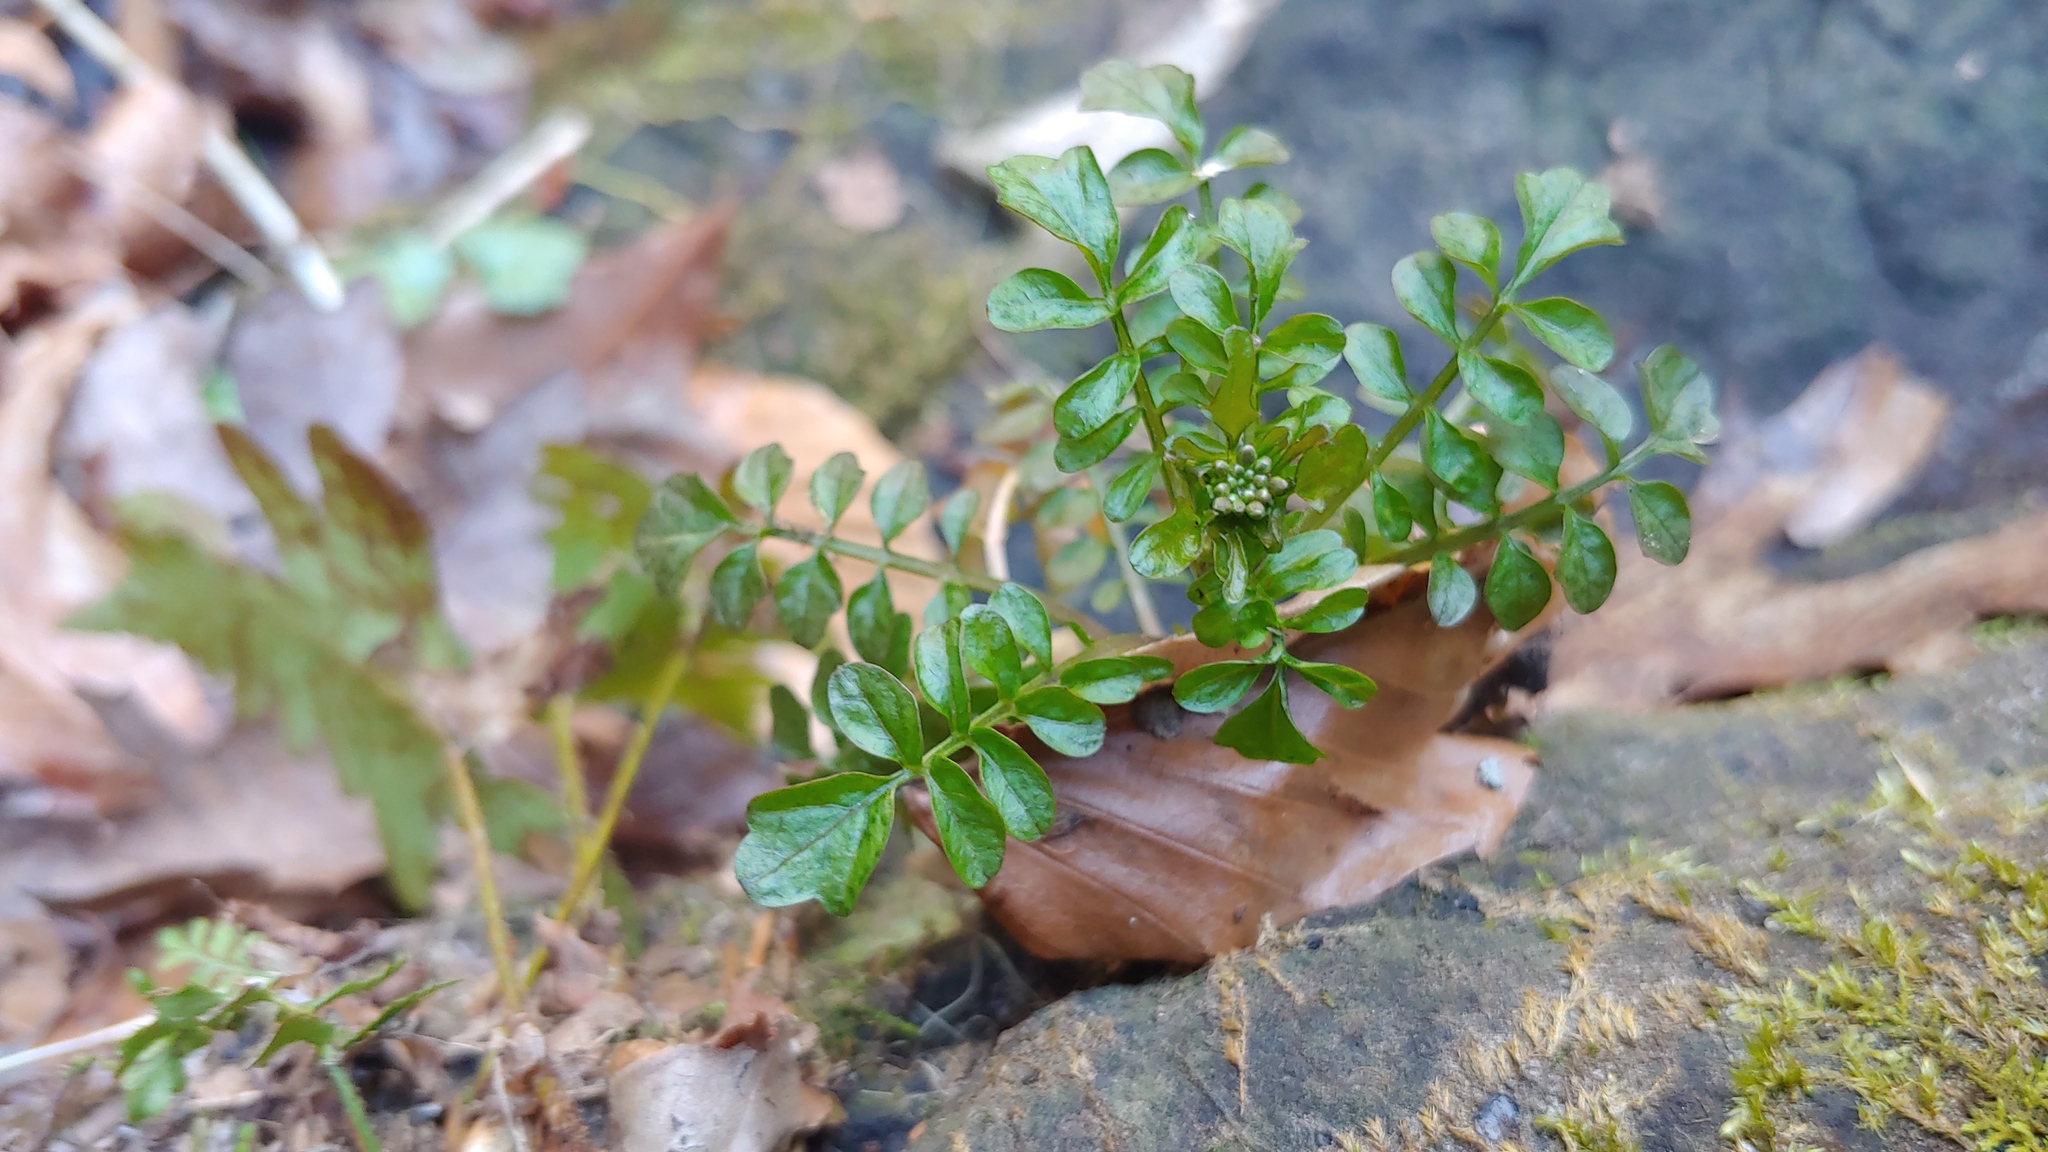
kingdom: Plantae
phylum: Tracheophyta
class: Magnoliopsida
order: Brassicales
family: Brassicaceae
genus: Cardamine
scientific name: Cardamine pensylvanica
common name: Pennsylvania bittercress
